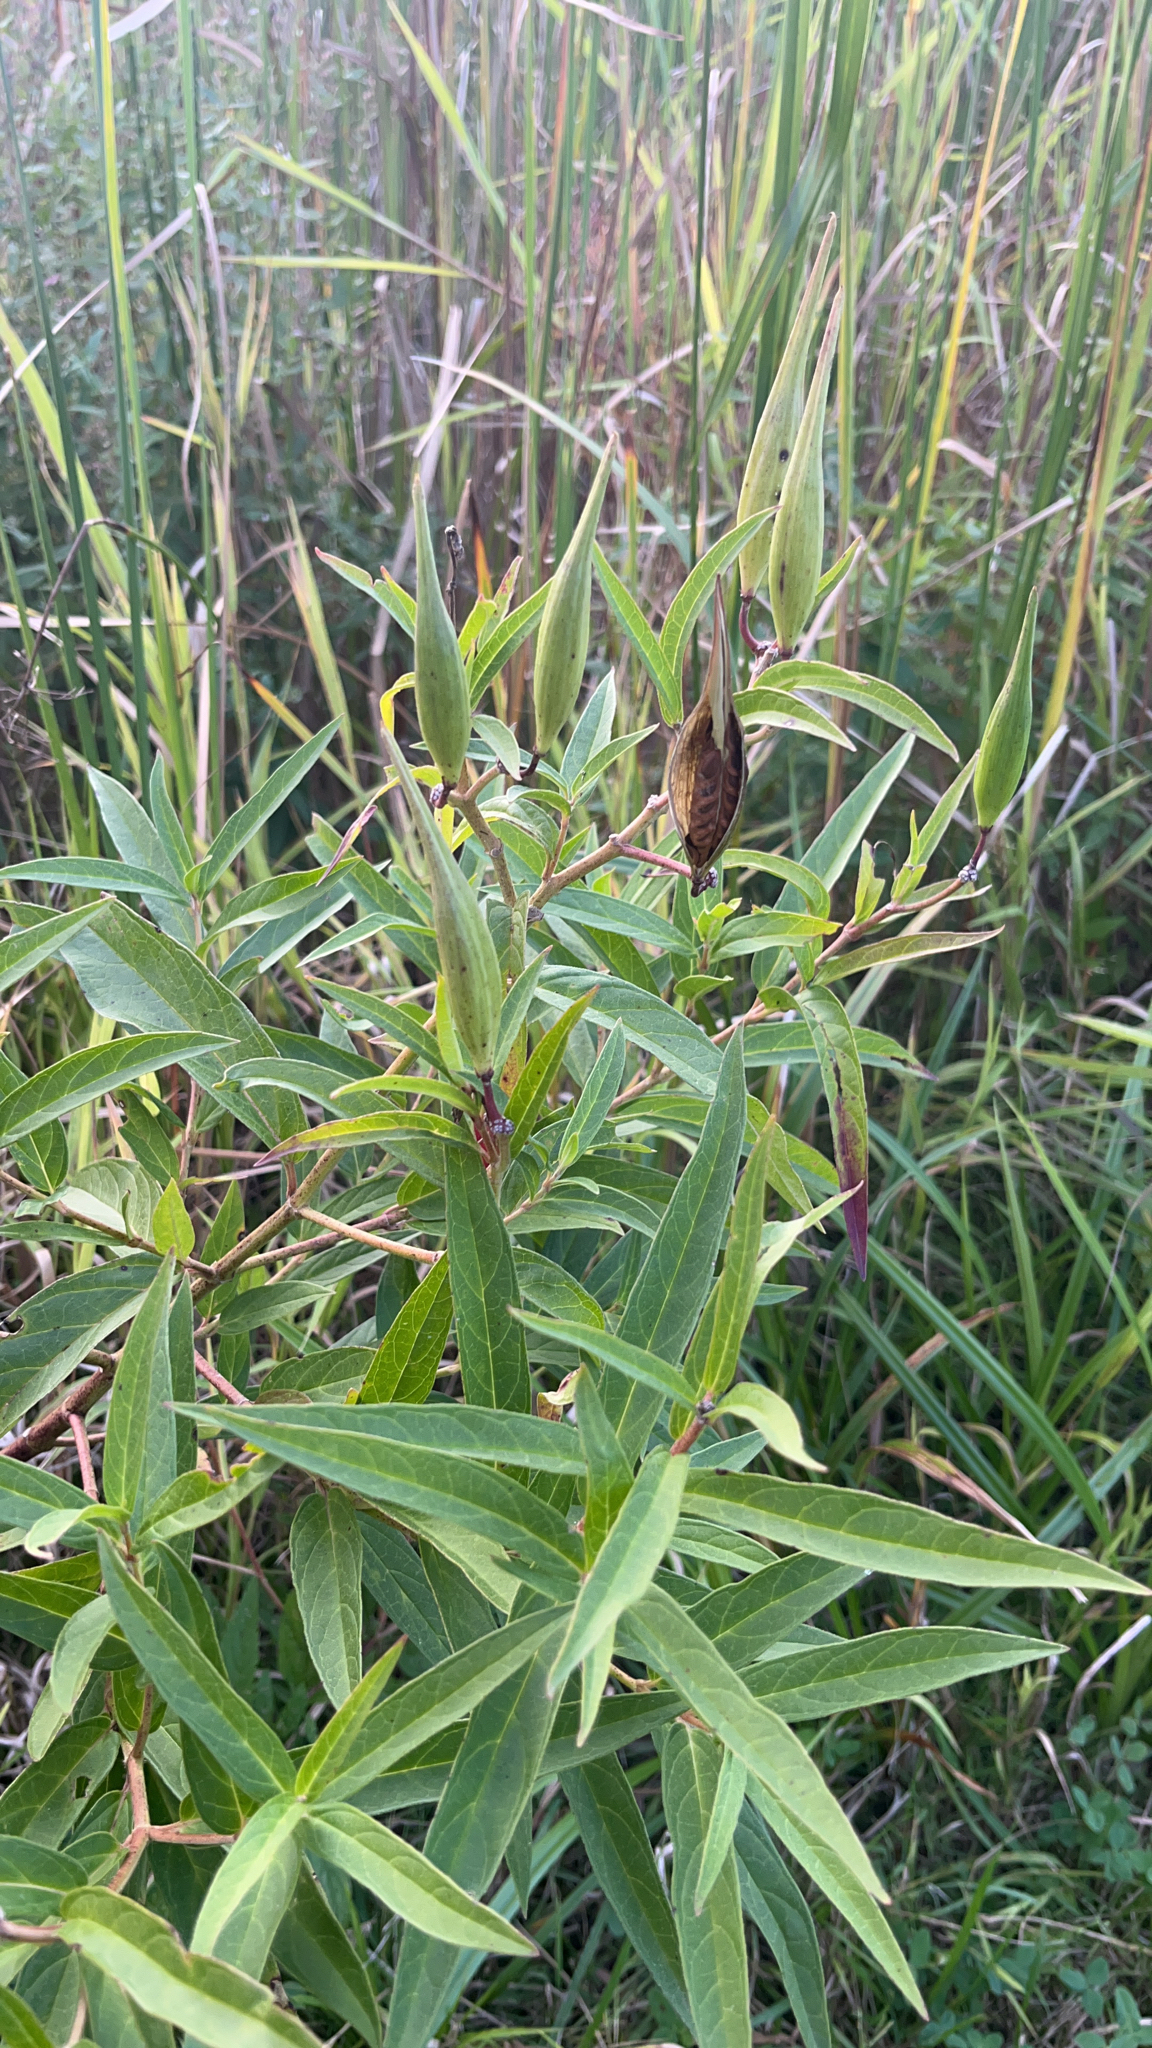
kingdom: Plantae
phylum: Tracheophyta
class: Magnoliopsida
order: Gentianales
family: Apocynaceae
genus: Asclepias
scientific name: Asclepias incarnata
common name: Swamp milkweed
